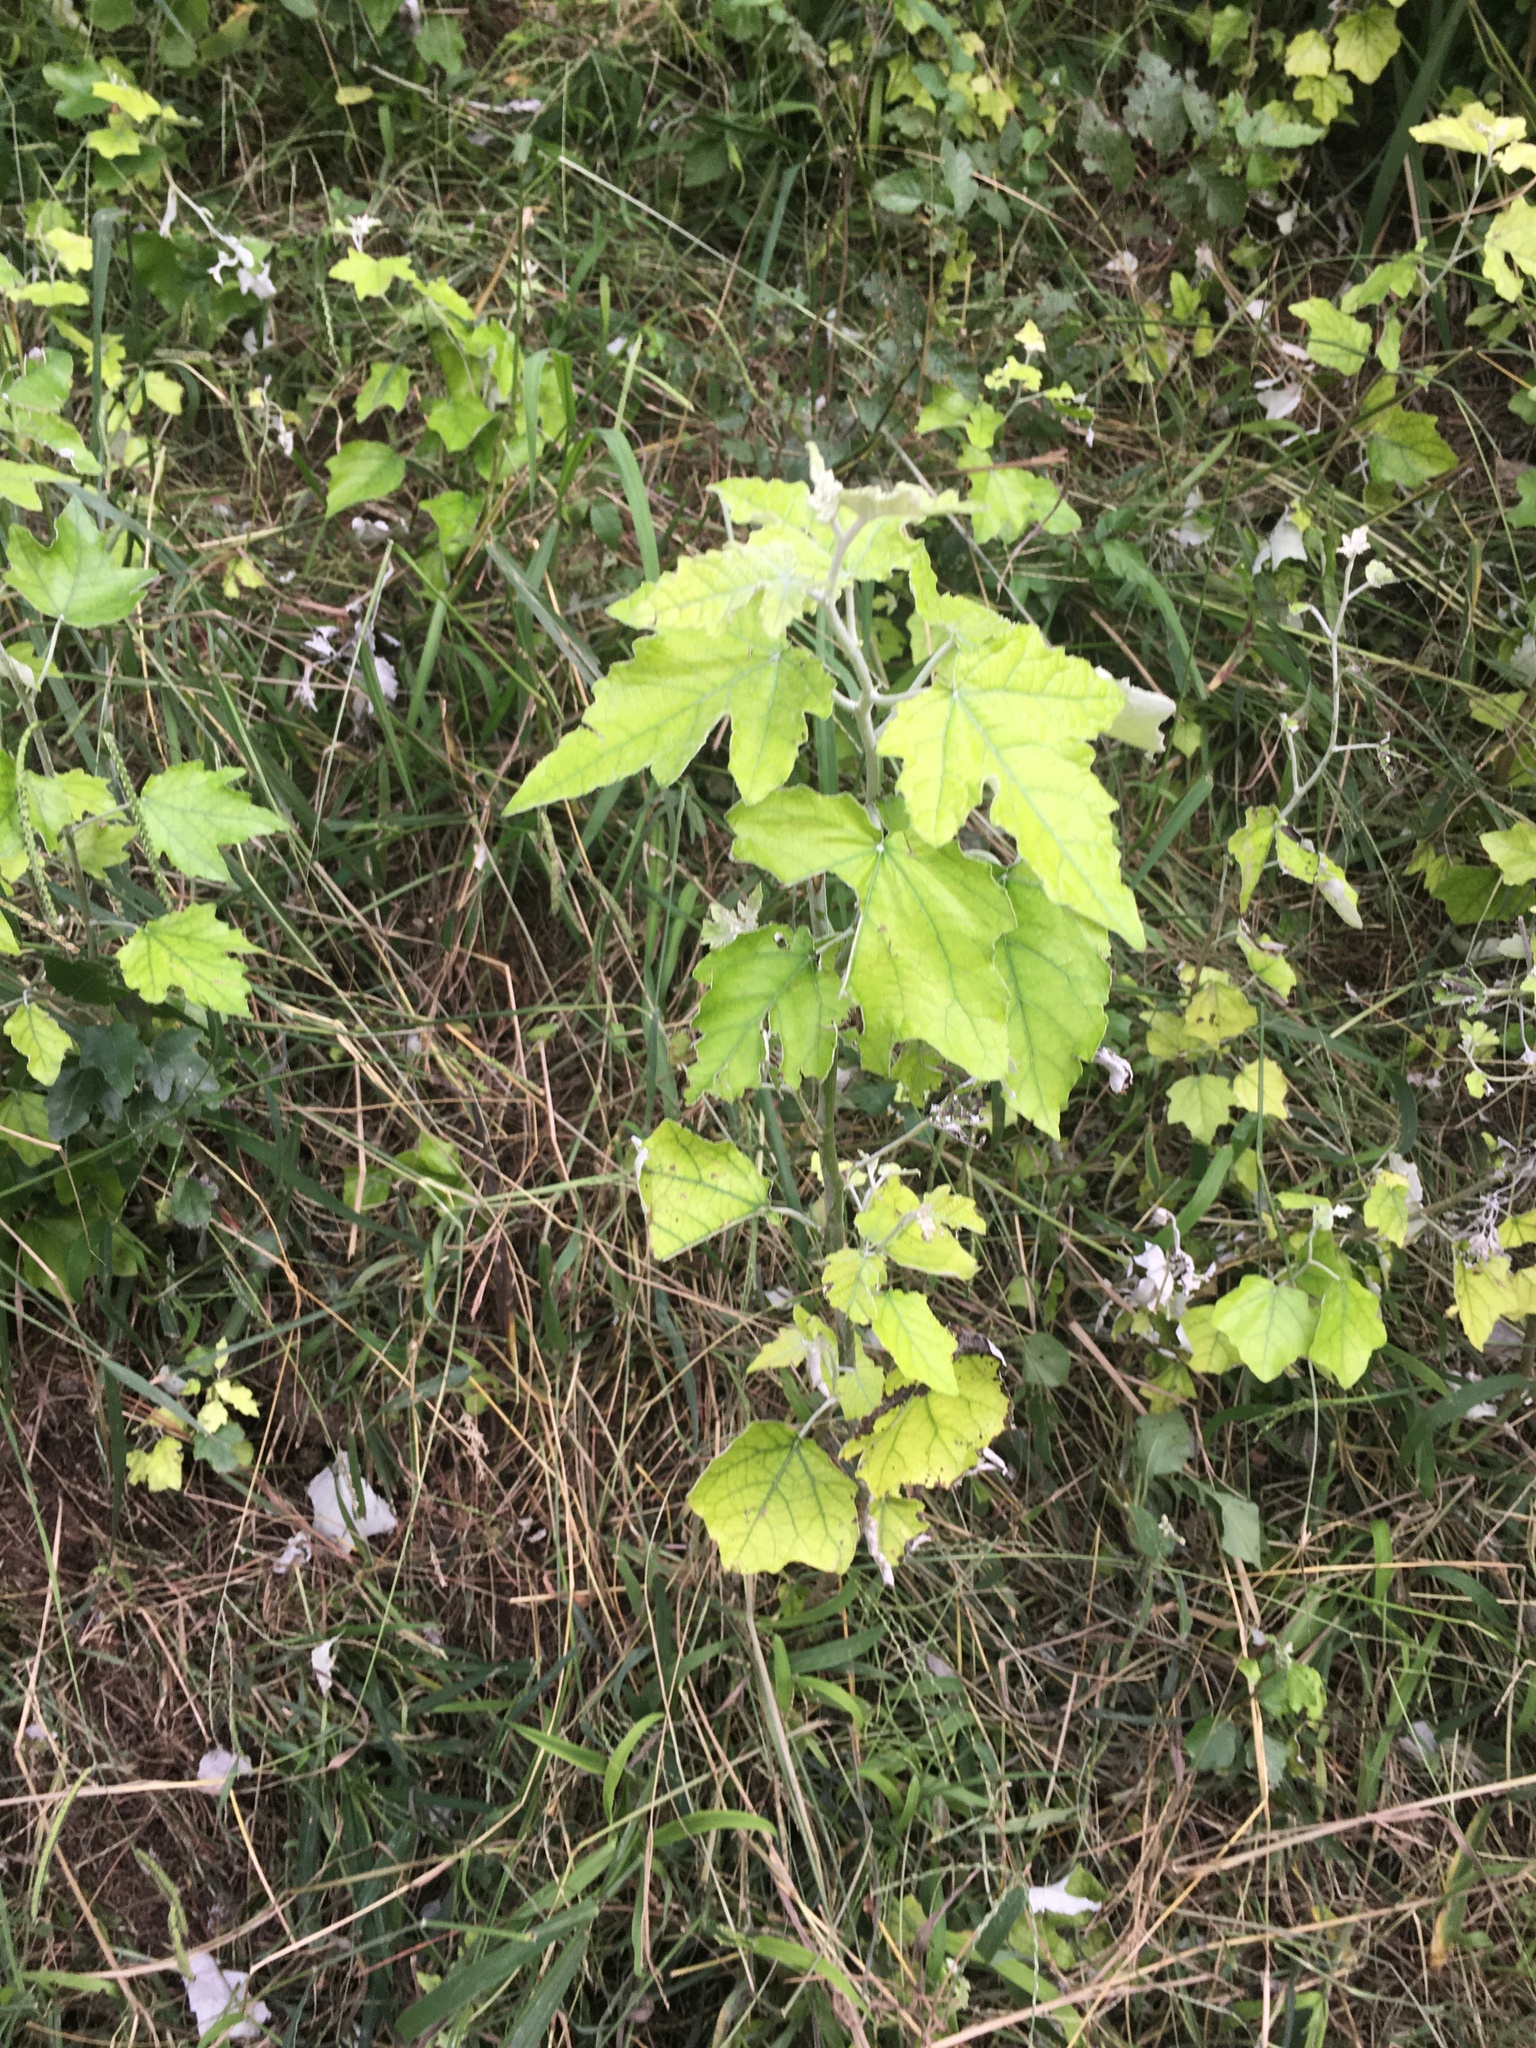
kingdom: Plantae
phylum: Tracheophyta
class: Magnoliopsida
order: Malpighiales
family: Salicaceae
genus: Populus
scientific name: Populus alba
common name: White poplar
